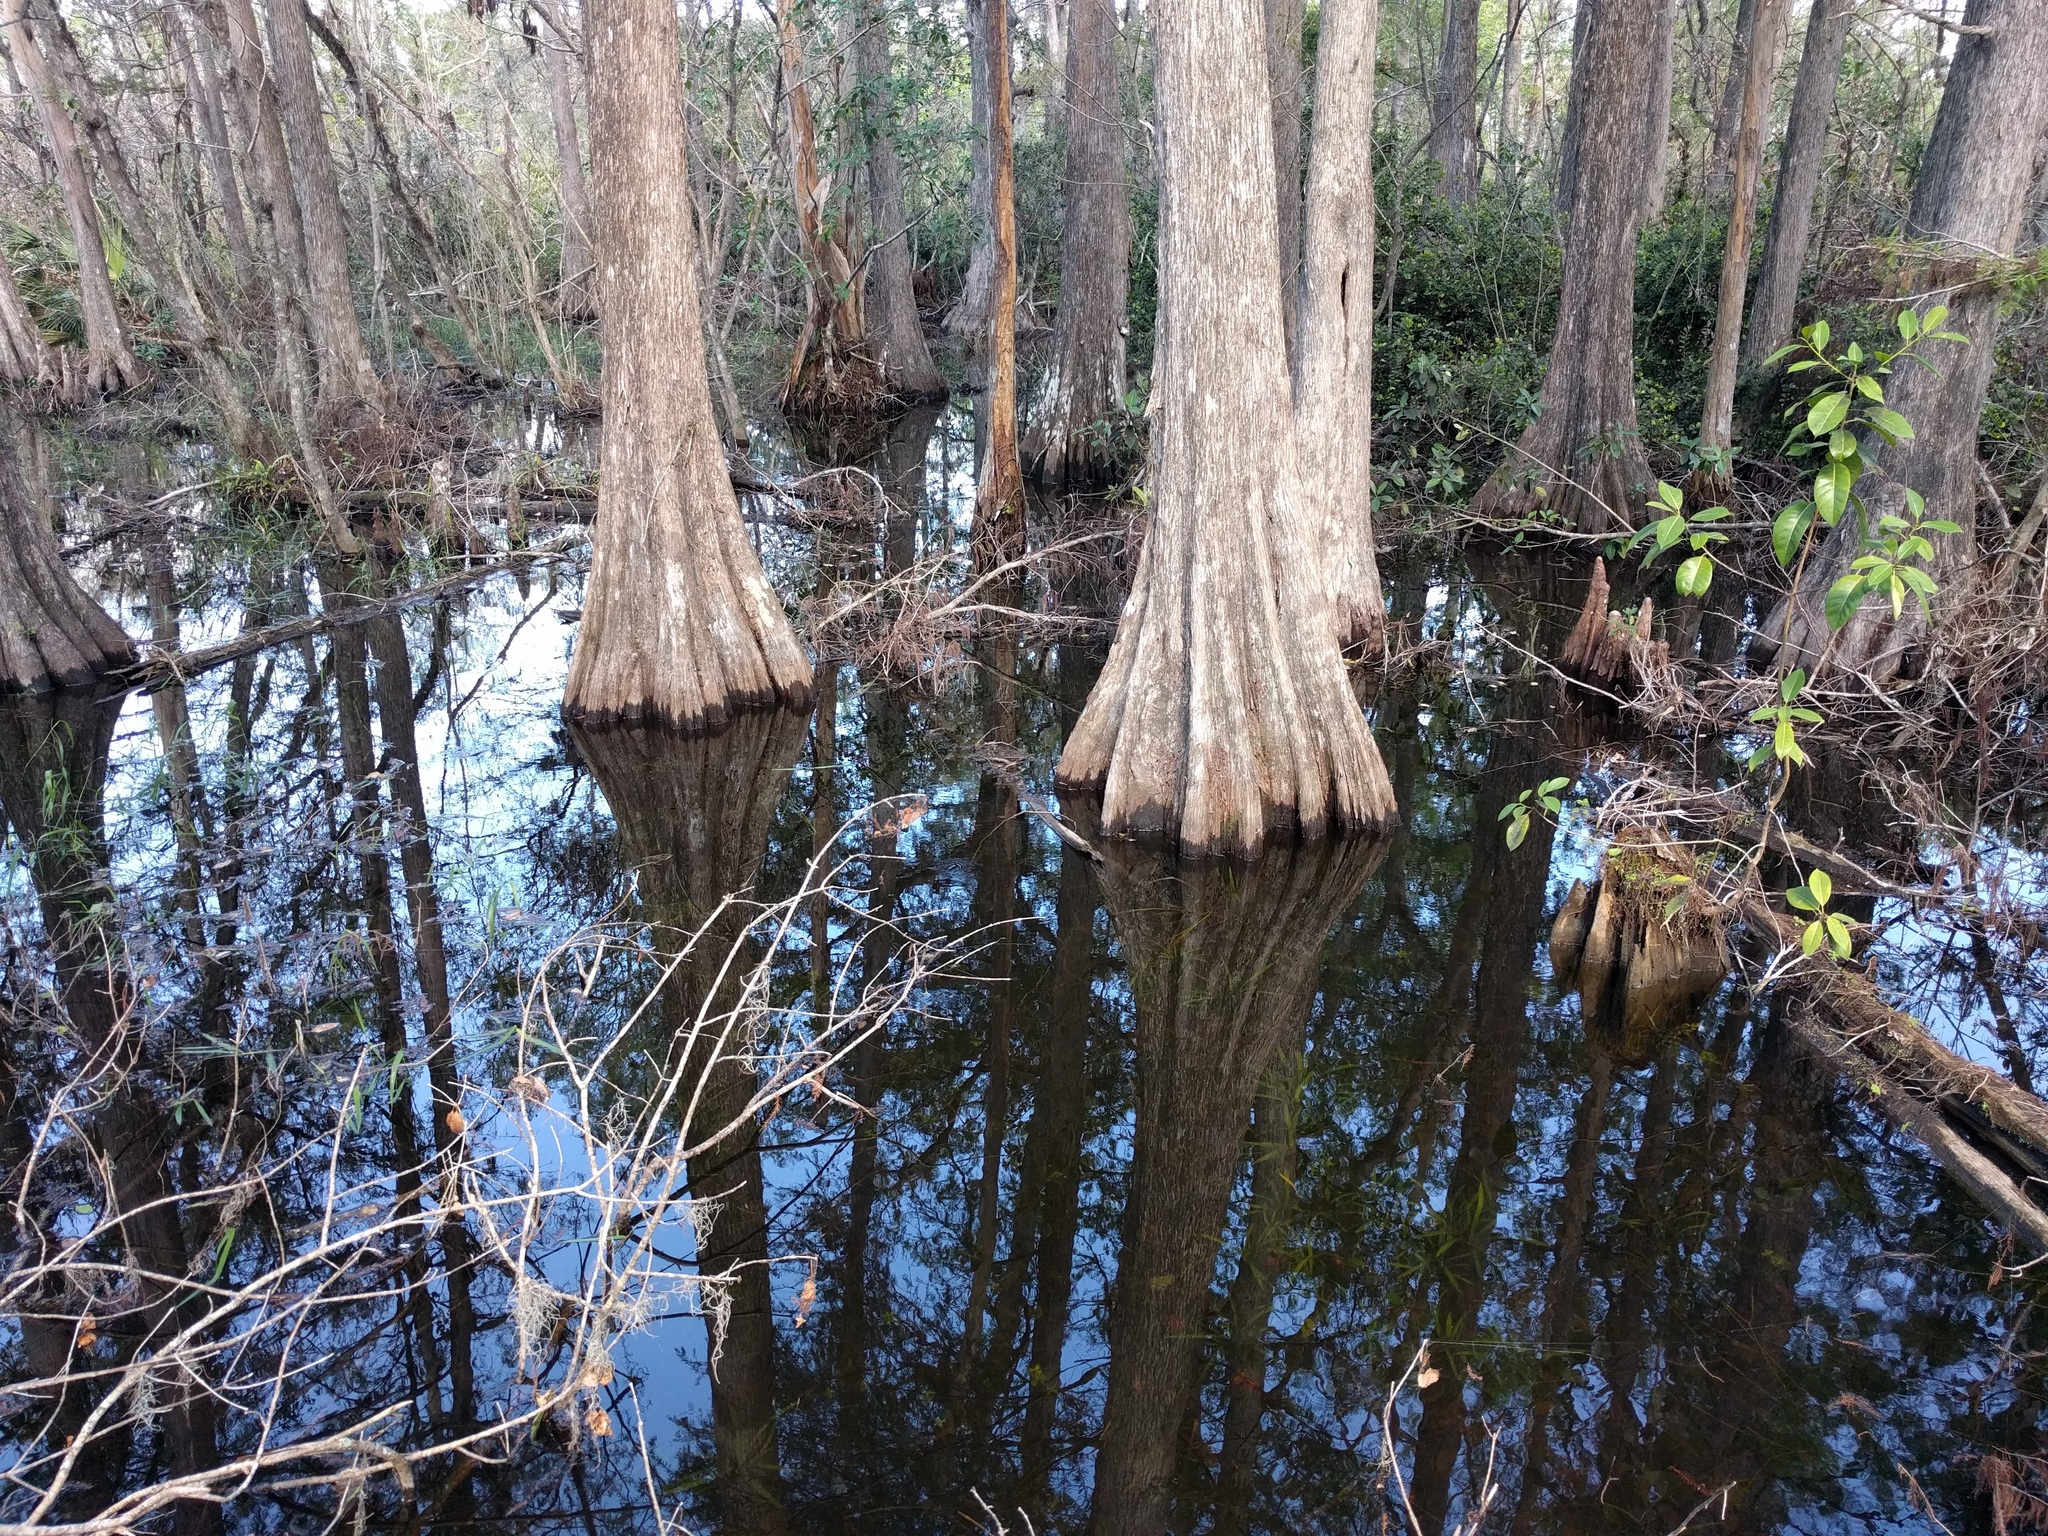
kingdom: Plantae
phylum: Tracheophyta
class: Pinopsida
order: Pinales
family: Cupressaceae
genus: Taxodium
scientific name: Taxodium distichum
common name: Bald cypress
